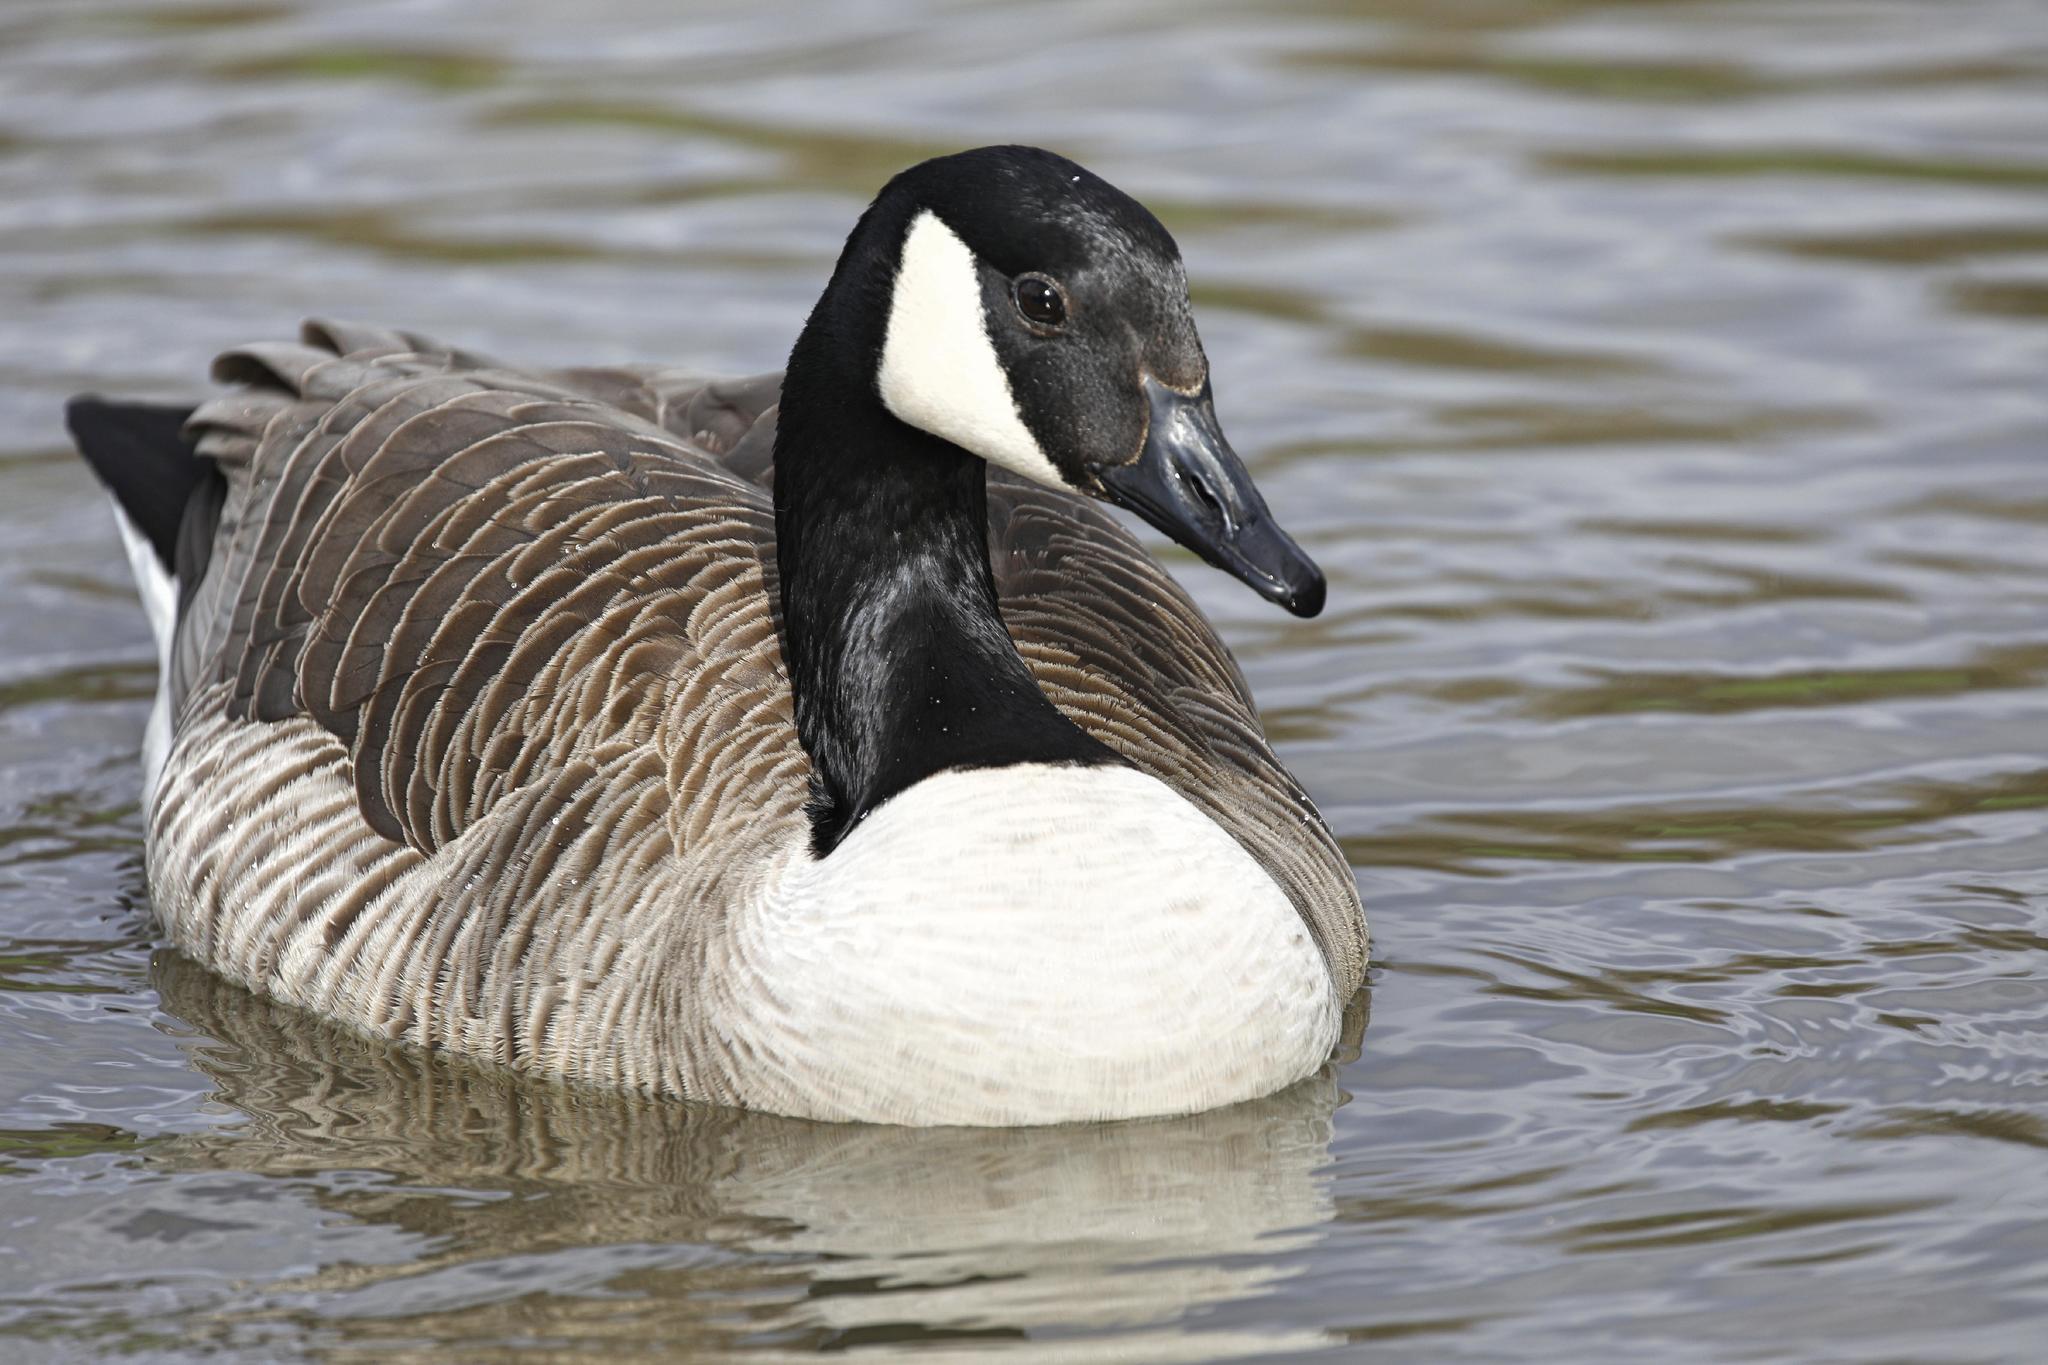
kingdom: Animalia
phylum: Chordata
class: Aves
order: Anseriformes
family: Anatidae
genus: Branta
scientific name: Branta canadensis
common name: Canada goose
